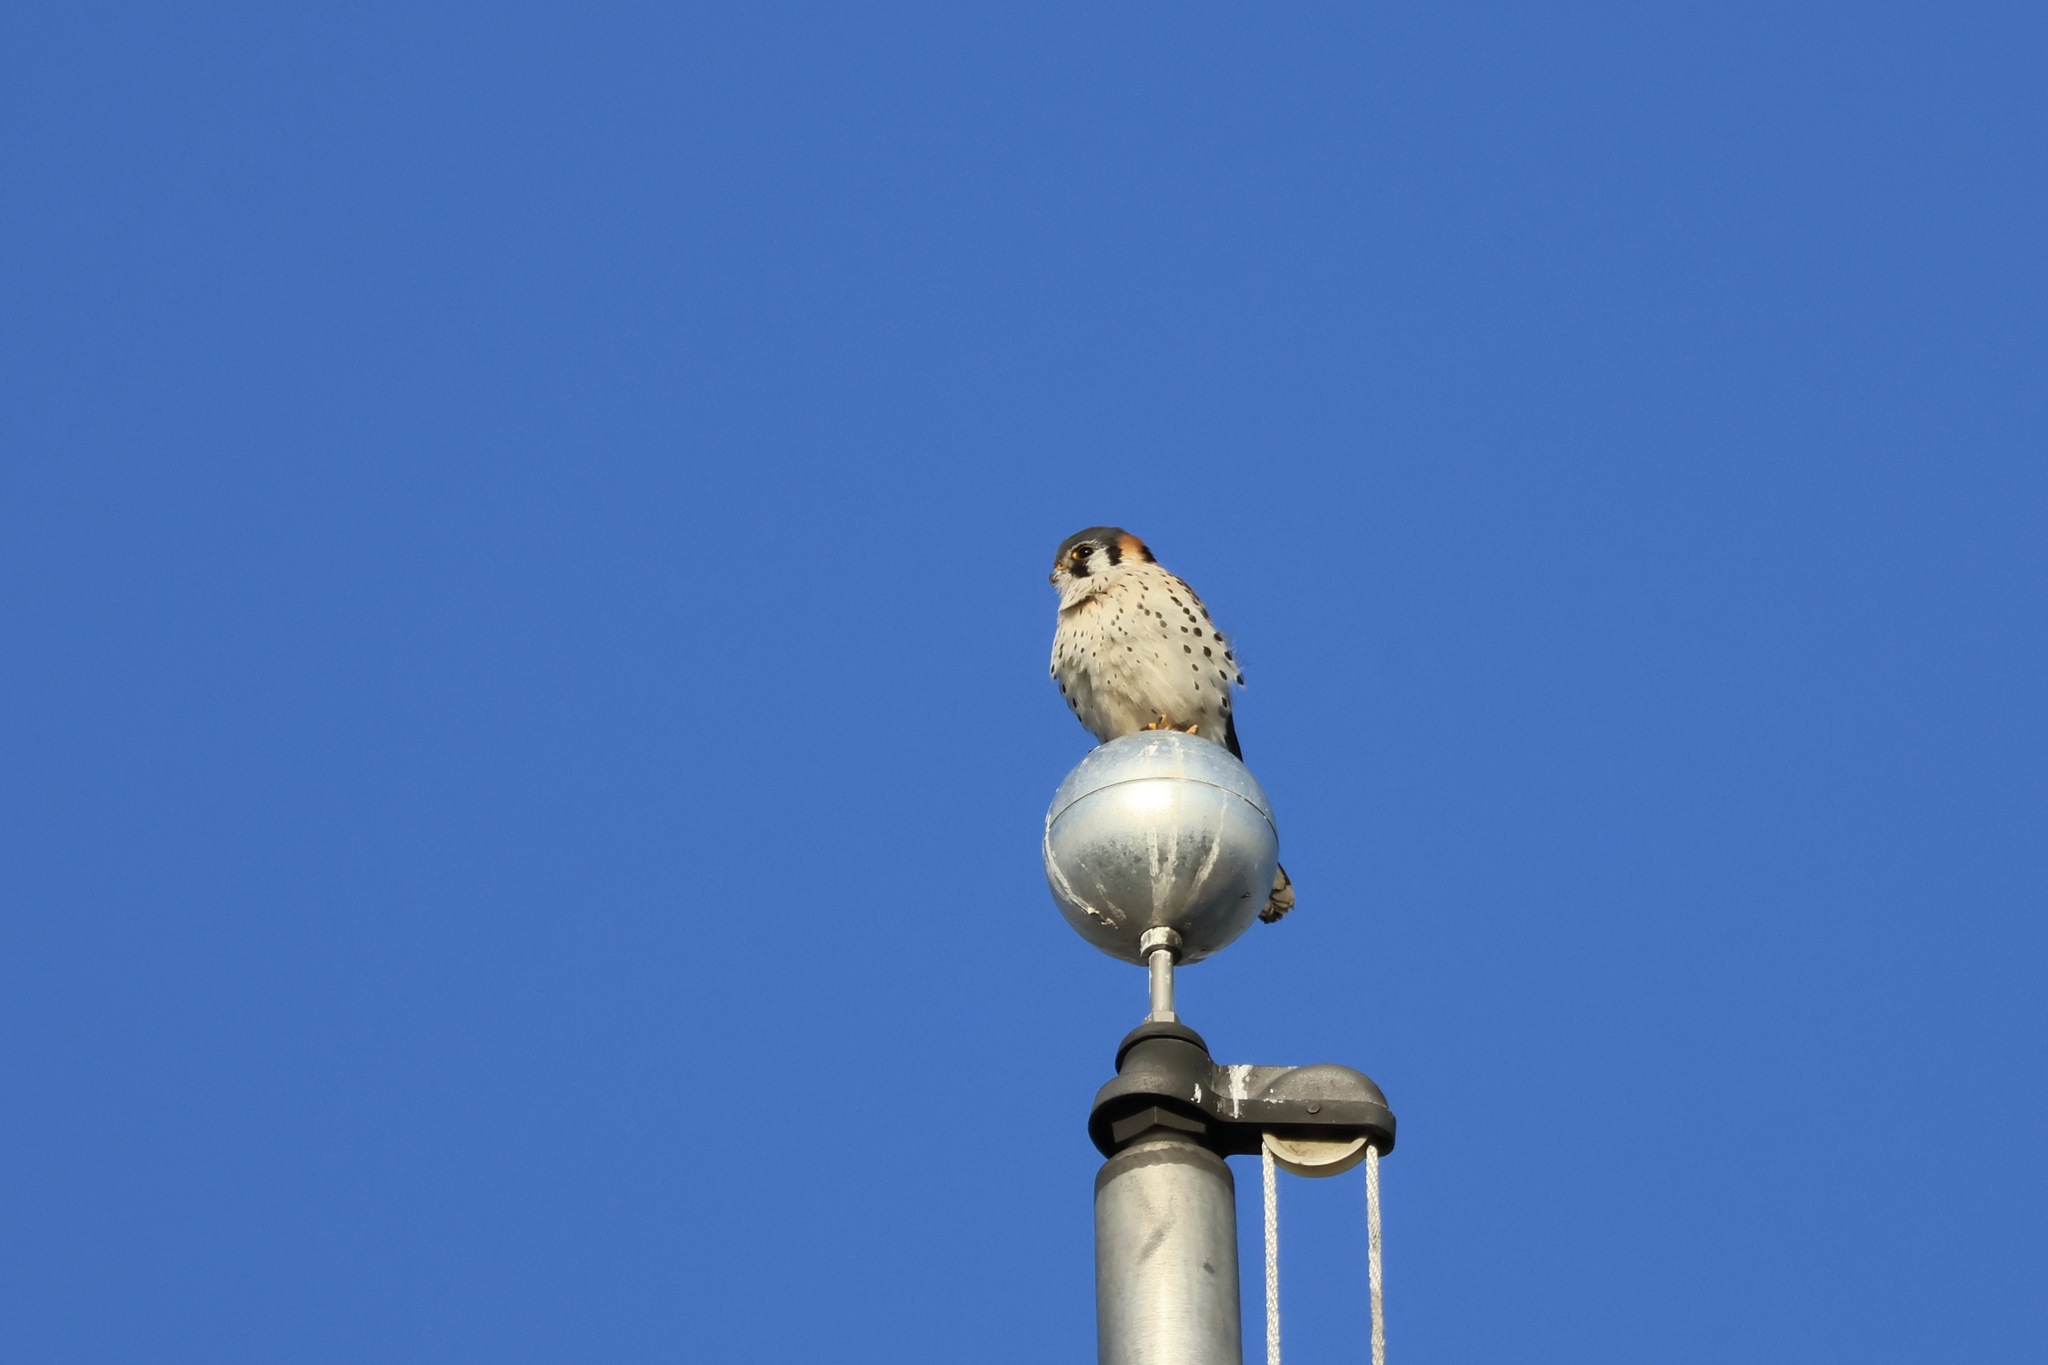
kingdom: Animalia
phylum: Chordata
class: Aves
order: Falconiformes
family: Falconidae
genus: Falco
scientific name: Falco sparverius
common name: American kestrel
